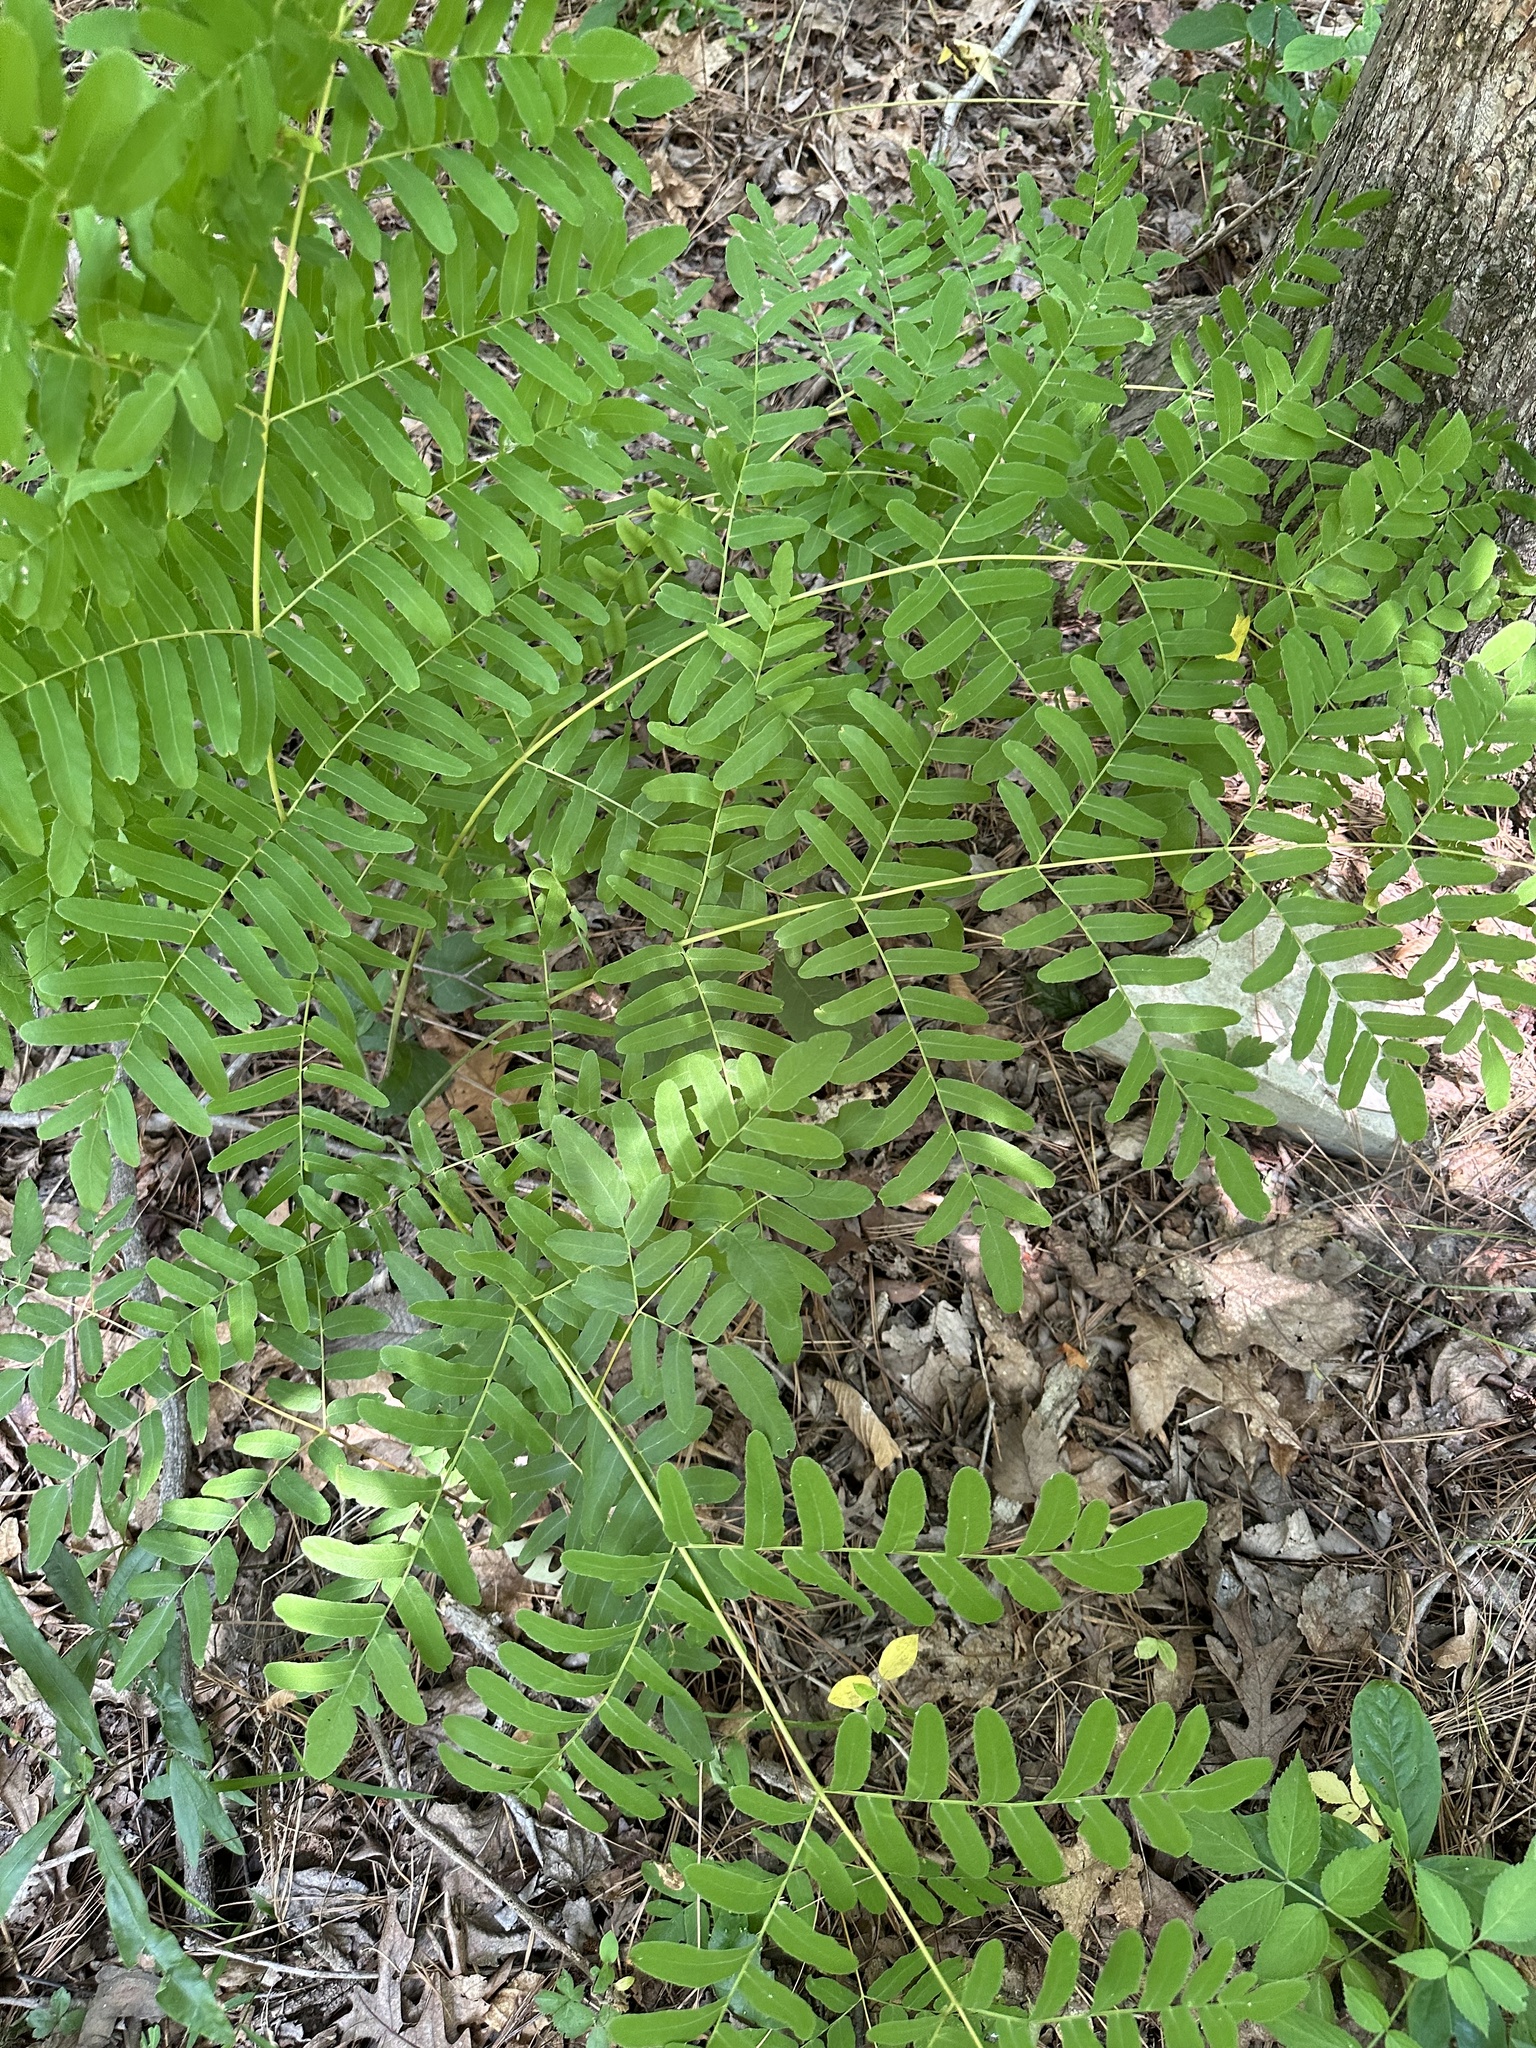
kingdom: Plantae
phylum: Tracheophyta
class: Polypodiopsida
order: Osmundales
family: Osmundaceae
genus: Osmunda
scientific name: Osmunda spectabilis
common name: American royal fern
